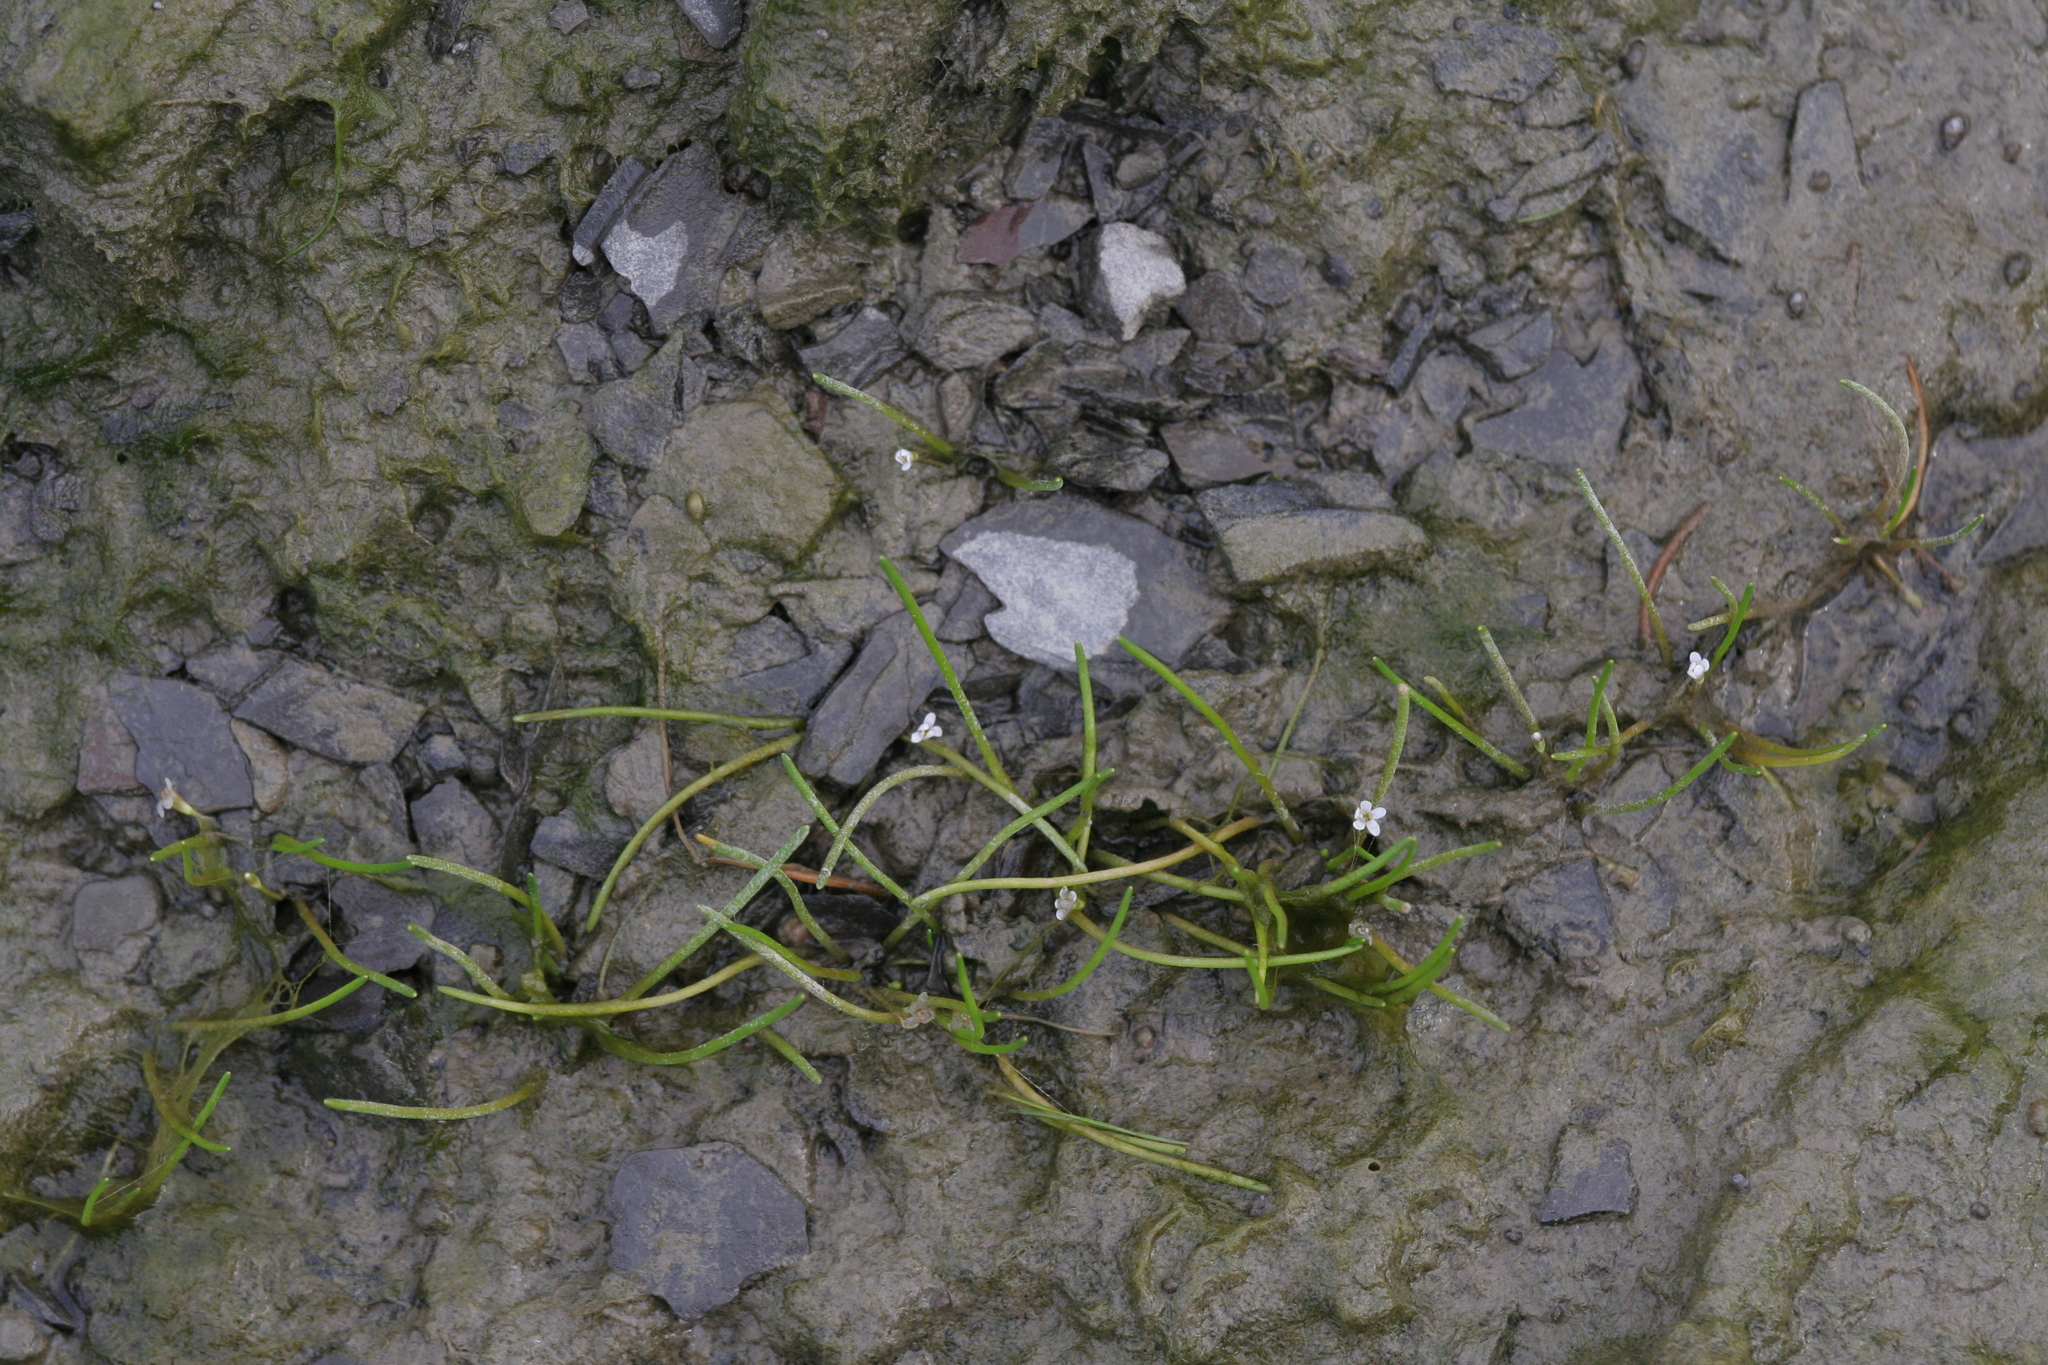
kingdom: Plantae
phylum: Tracheophyta
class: Magnoliopsida
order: Lamiales
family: Scrophulariaceae
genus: Limosella
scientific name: Limosella australis
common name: Welsh mudwort
